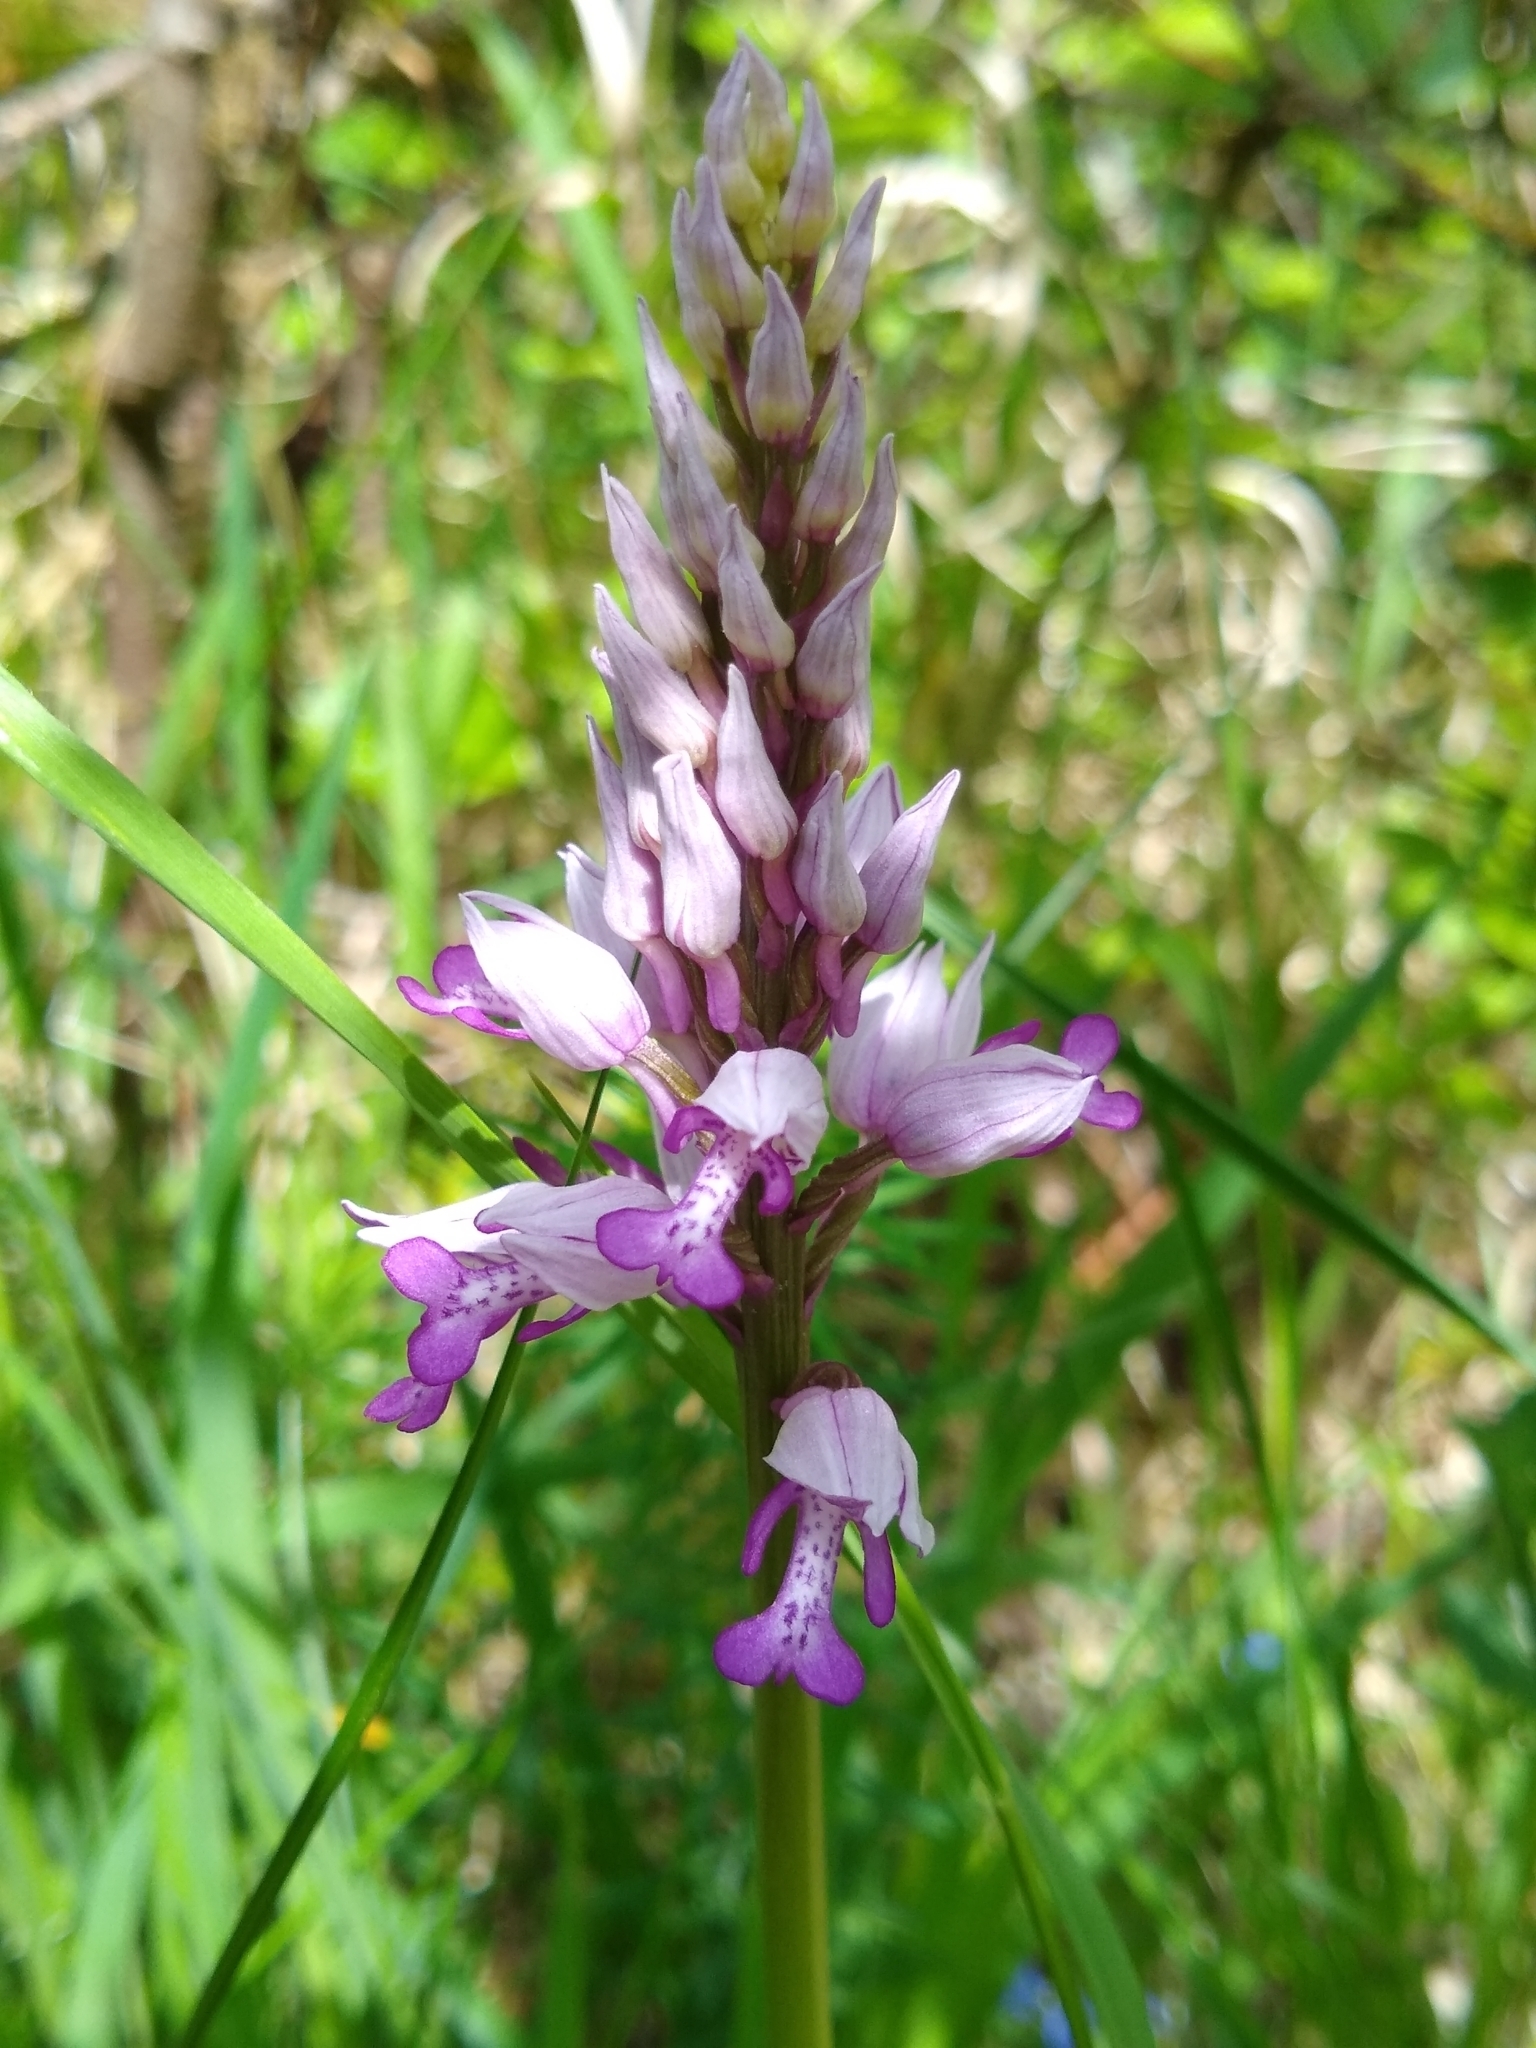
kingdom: Plantae
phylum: Tracheophyta
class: Liliopsida
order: Asparagales
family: Orchidaceae
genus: Orchis
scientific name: Orchis militaris
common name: Military orchid
